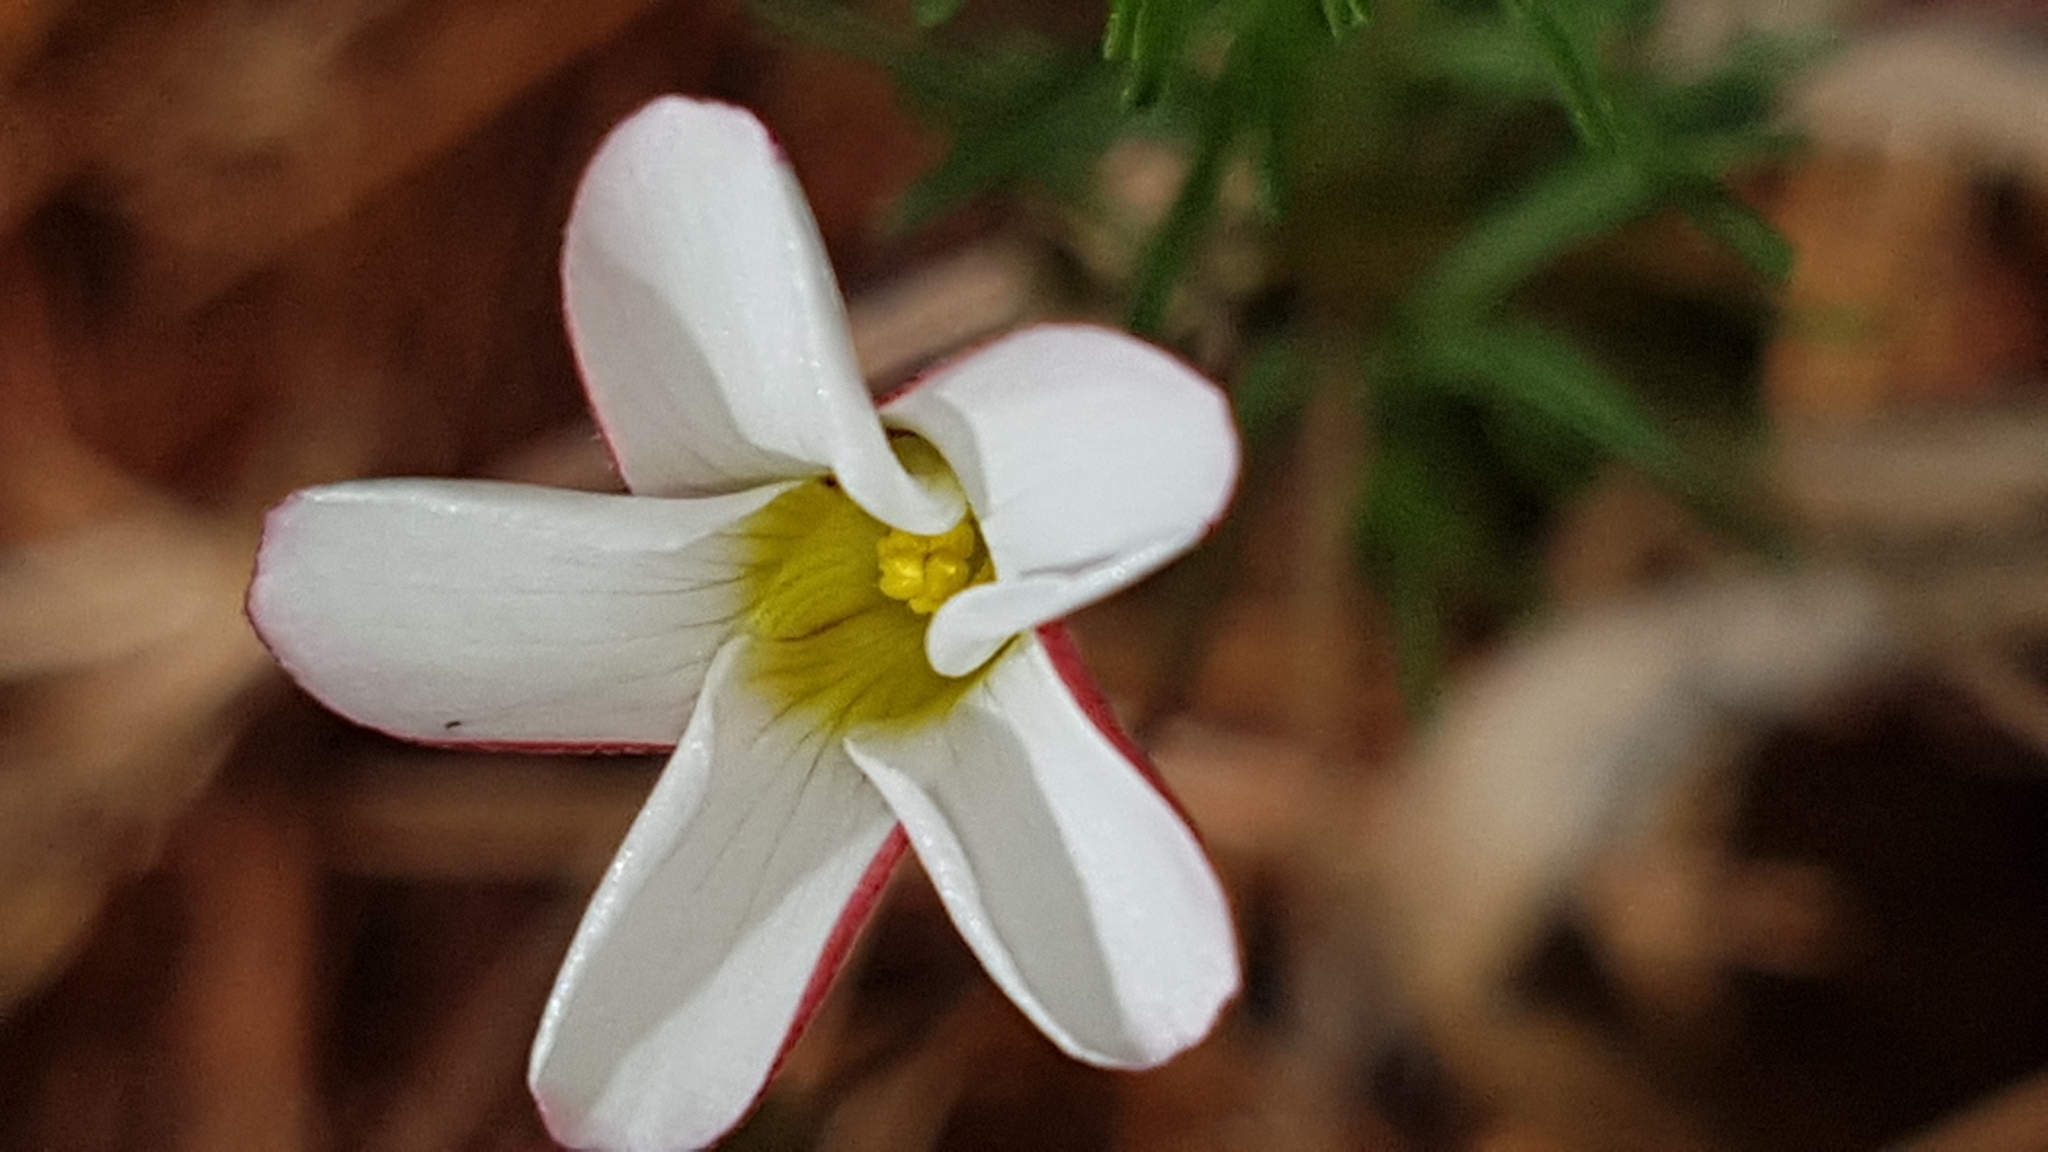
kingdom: Plantae
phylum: Tracheophyta
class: Magnoliopsida
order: Oxalidales
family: Oxalidaceae
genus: Oxalis
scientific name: Oxalis tenuifolia
